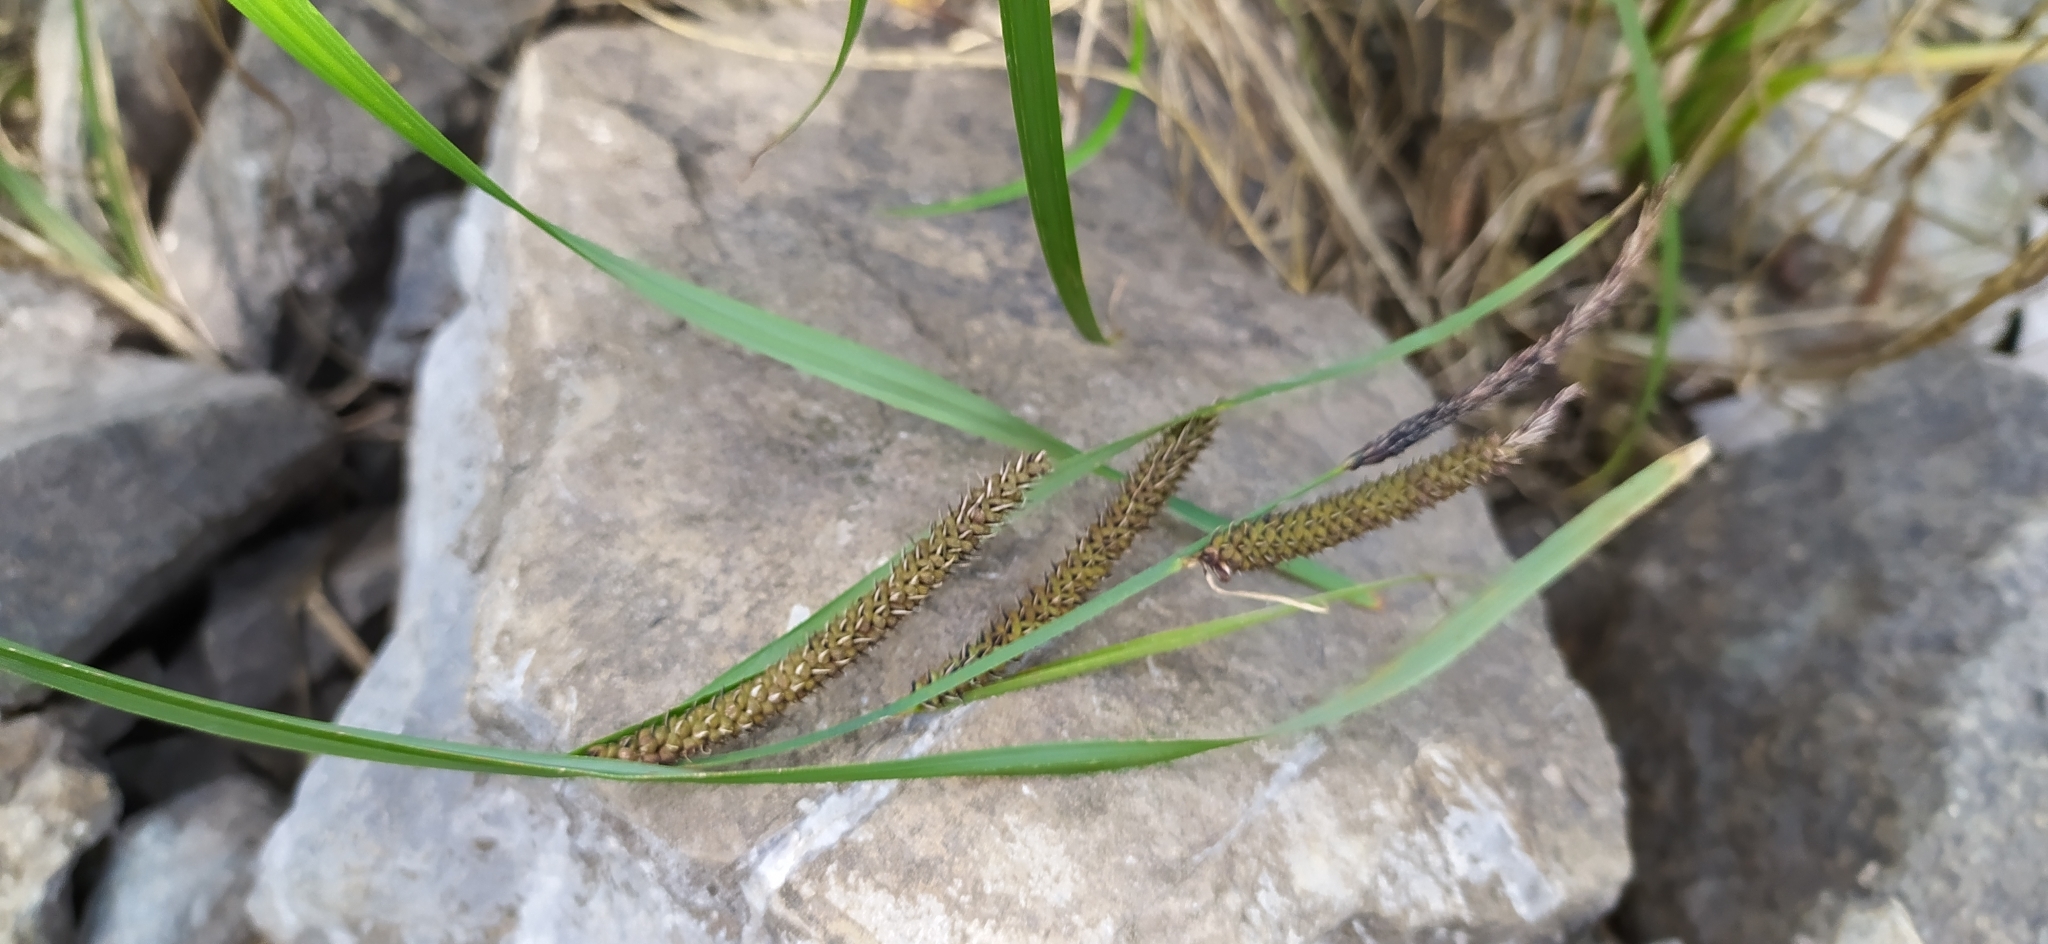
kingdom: Plantae
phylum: Tracheophyta
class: Liliopsida
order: Poales
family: Cyperaceae
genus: Carex
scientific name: Carex acuta
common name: Slender tufted-sedge
